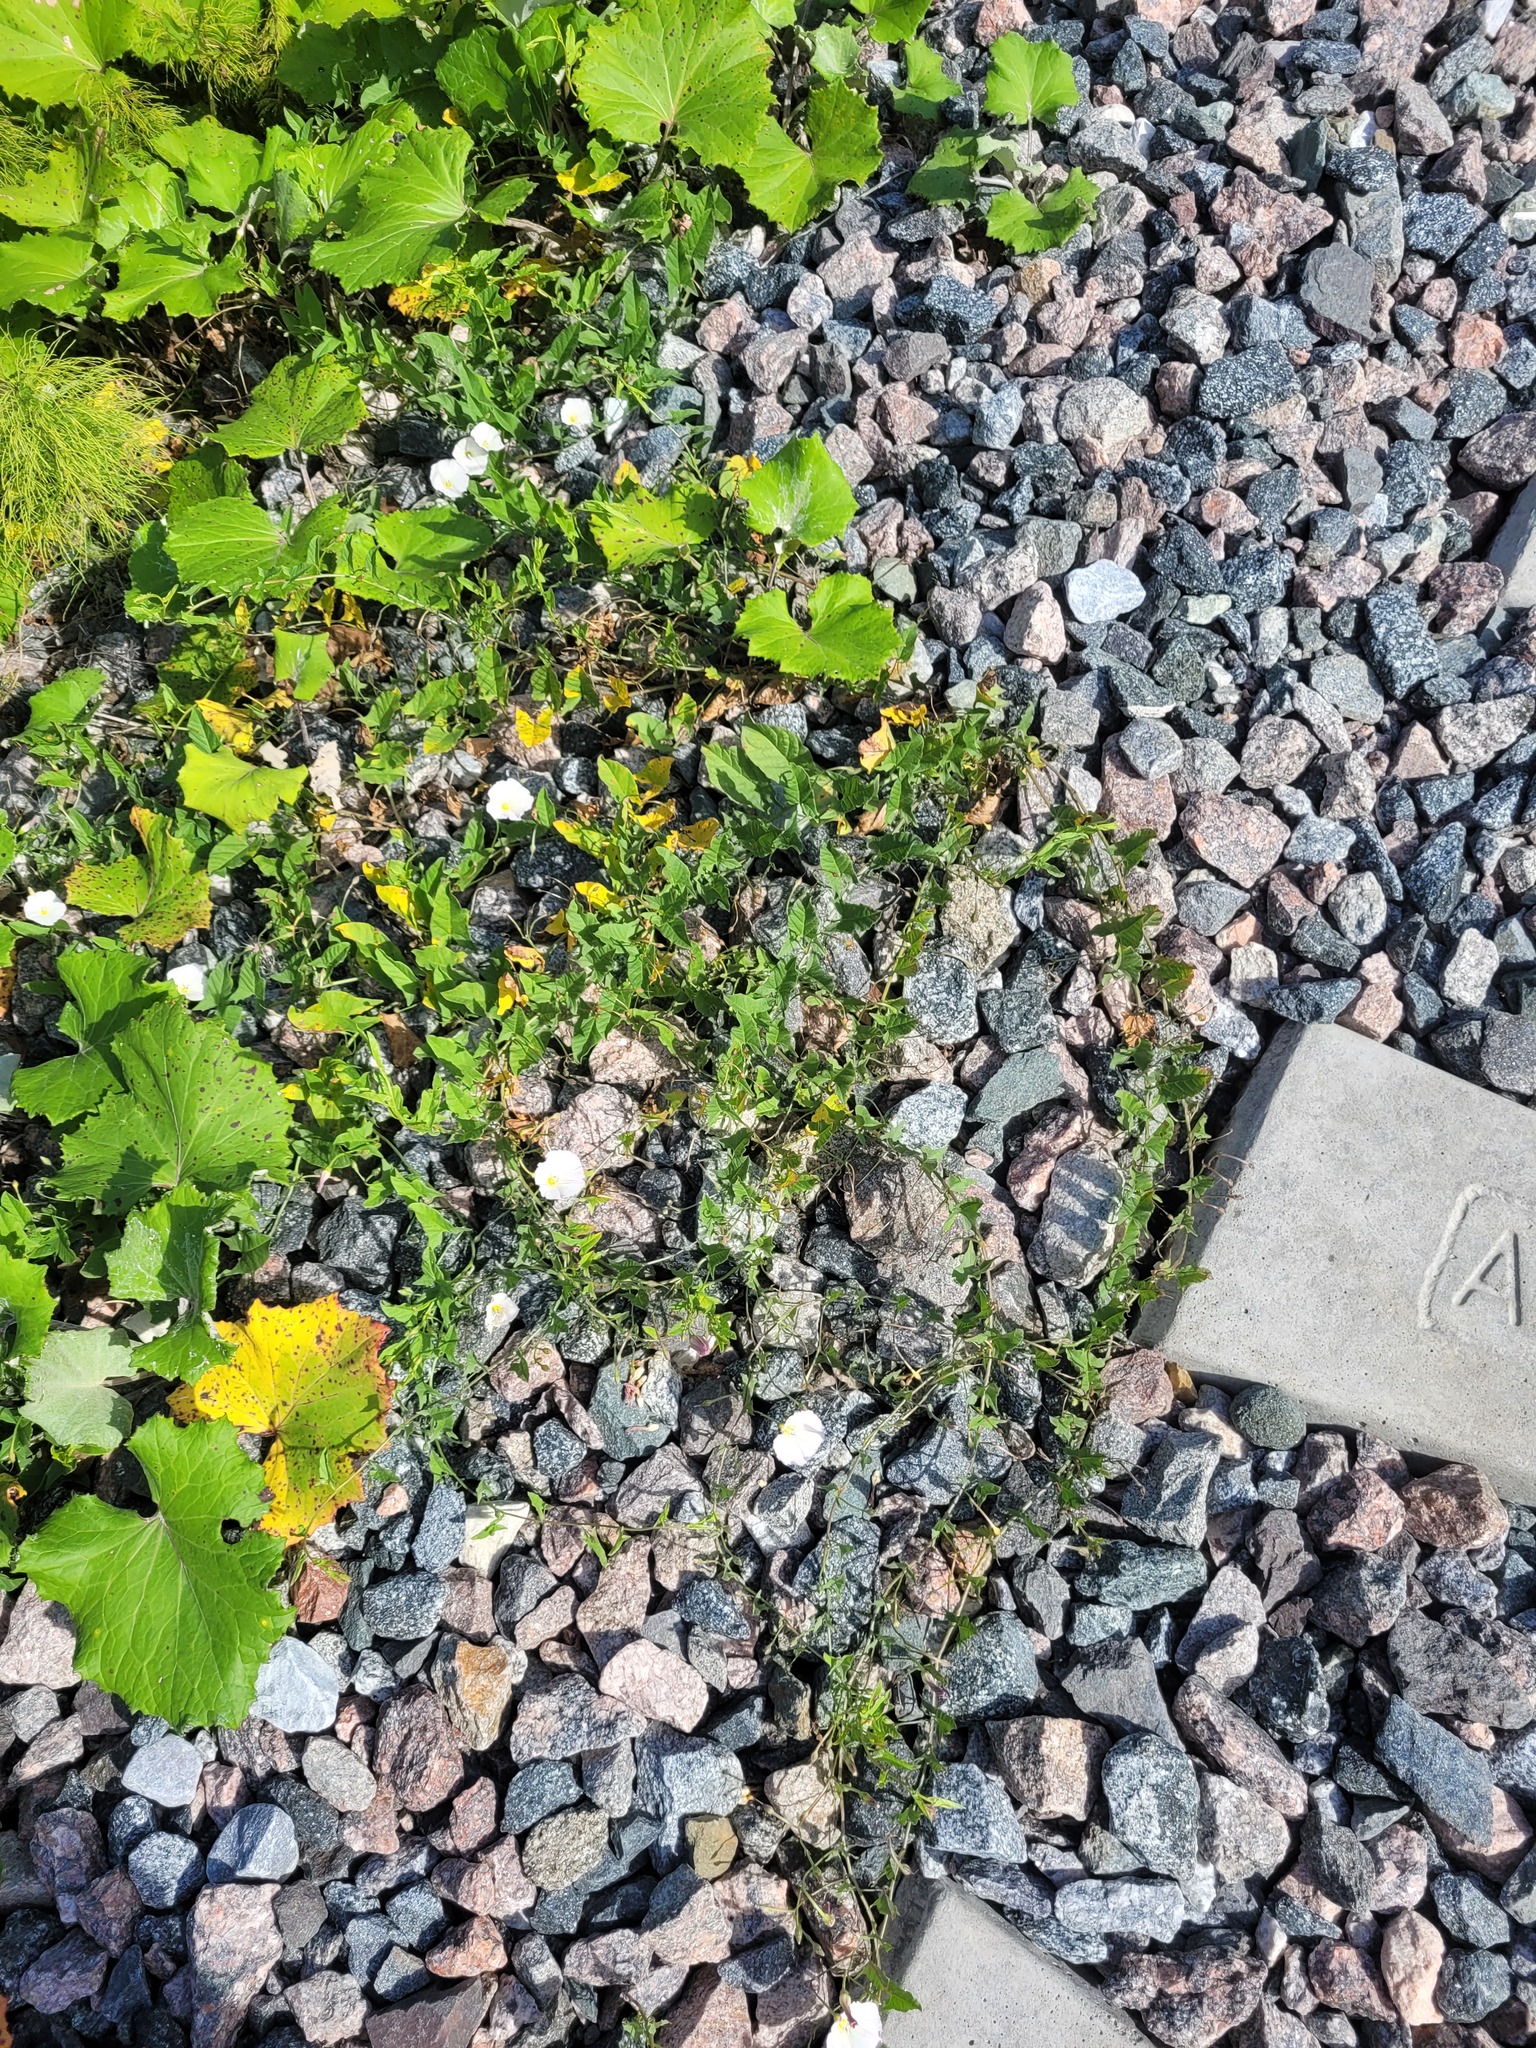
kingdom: Plantae
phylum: Tracheophyta
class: Magnoliopsida
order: Solanales
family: Convolvulaceae
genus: Convolvulus
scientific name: Convolvulus arvensis
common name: Field bindweed
